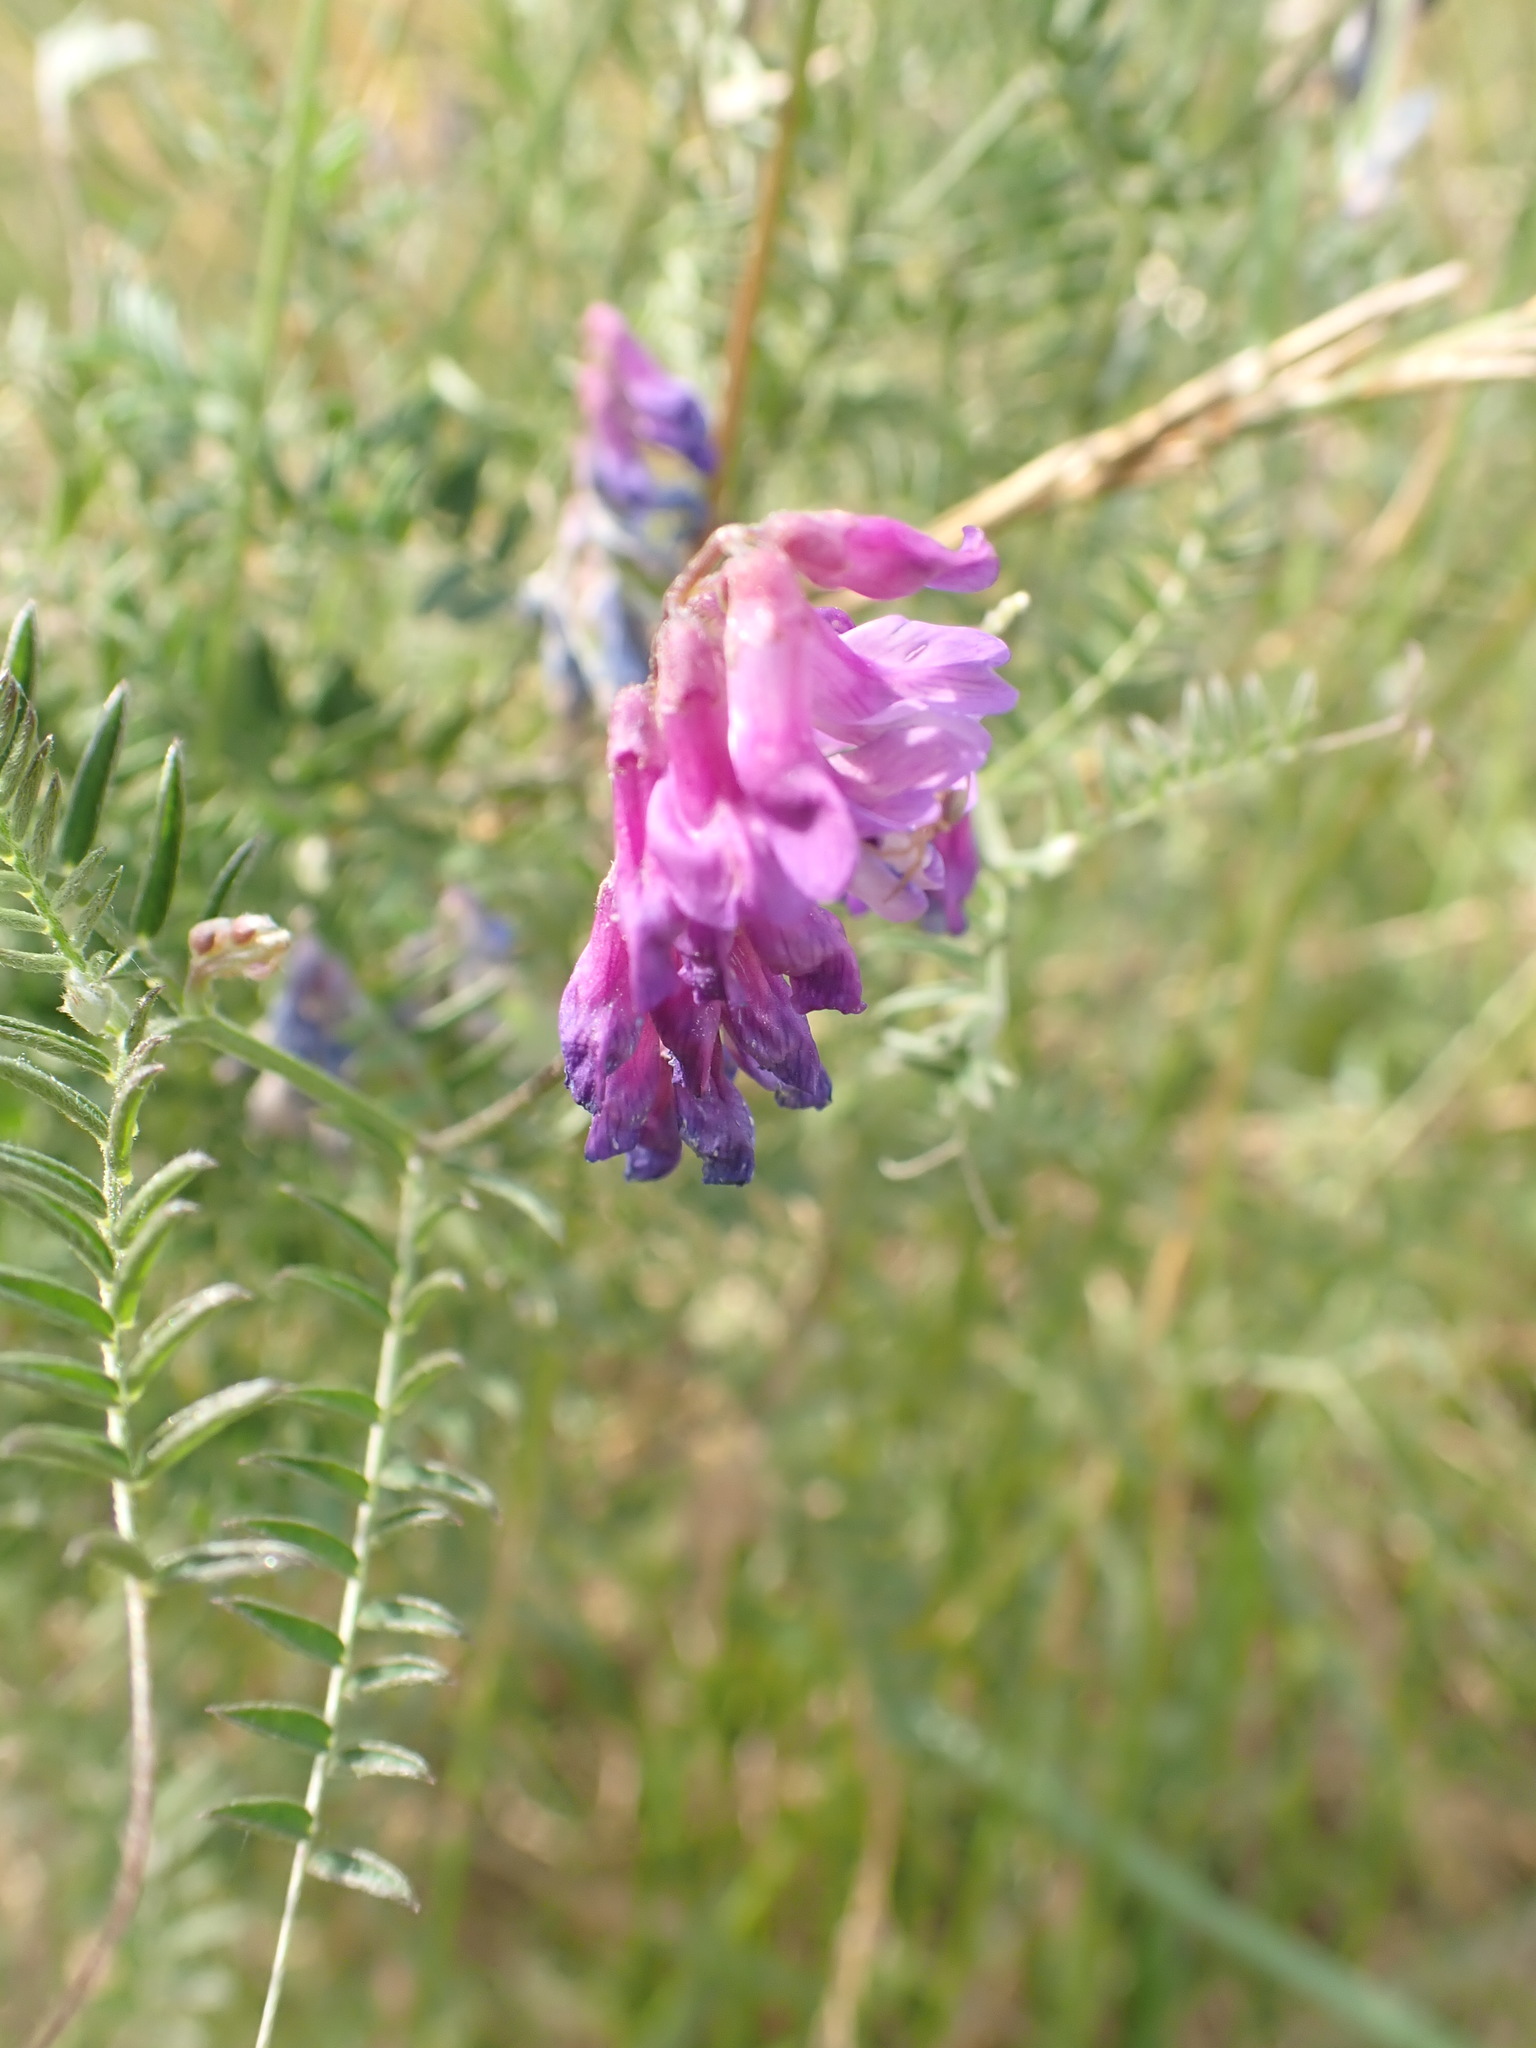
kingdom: Plantae
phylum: Tracheophyta
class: Magnoliopsida
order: Fabales
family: Fabaceae
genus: Vicia
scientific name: Vicia cracca
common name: Bird vetch
